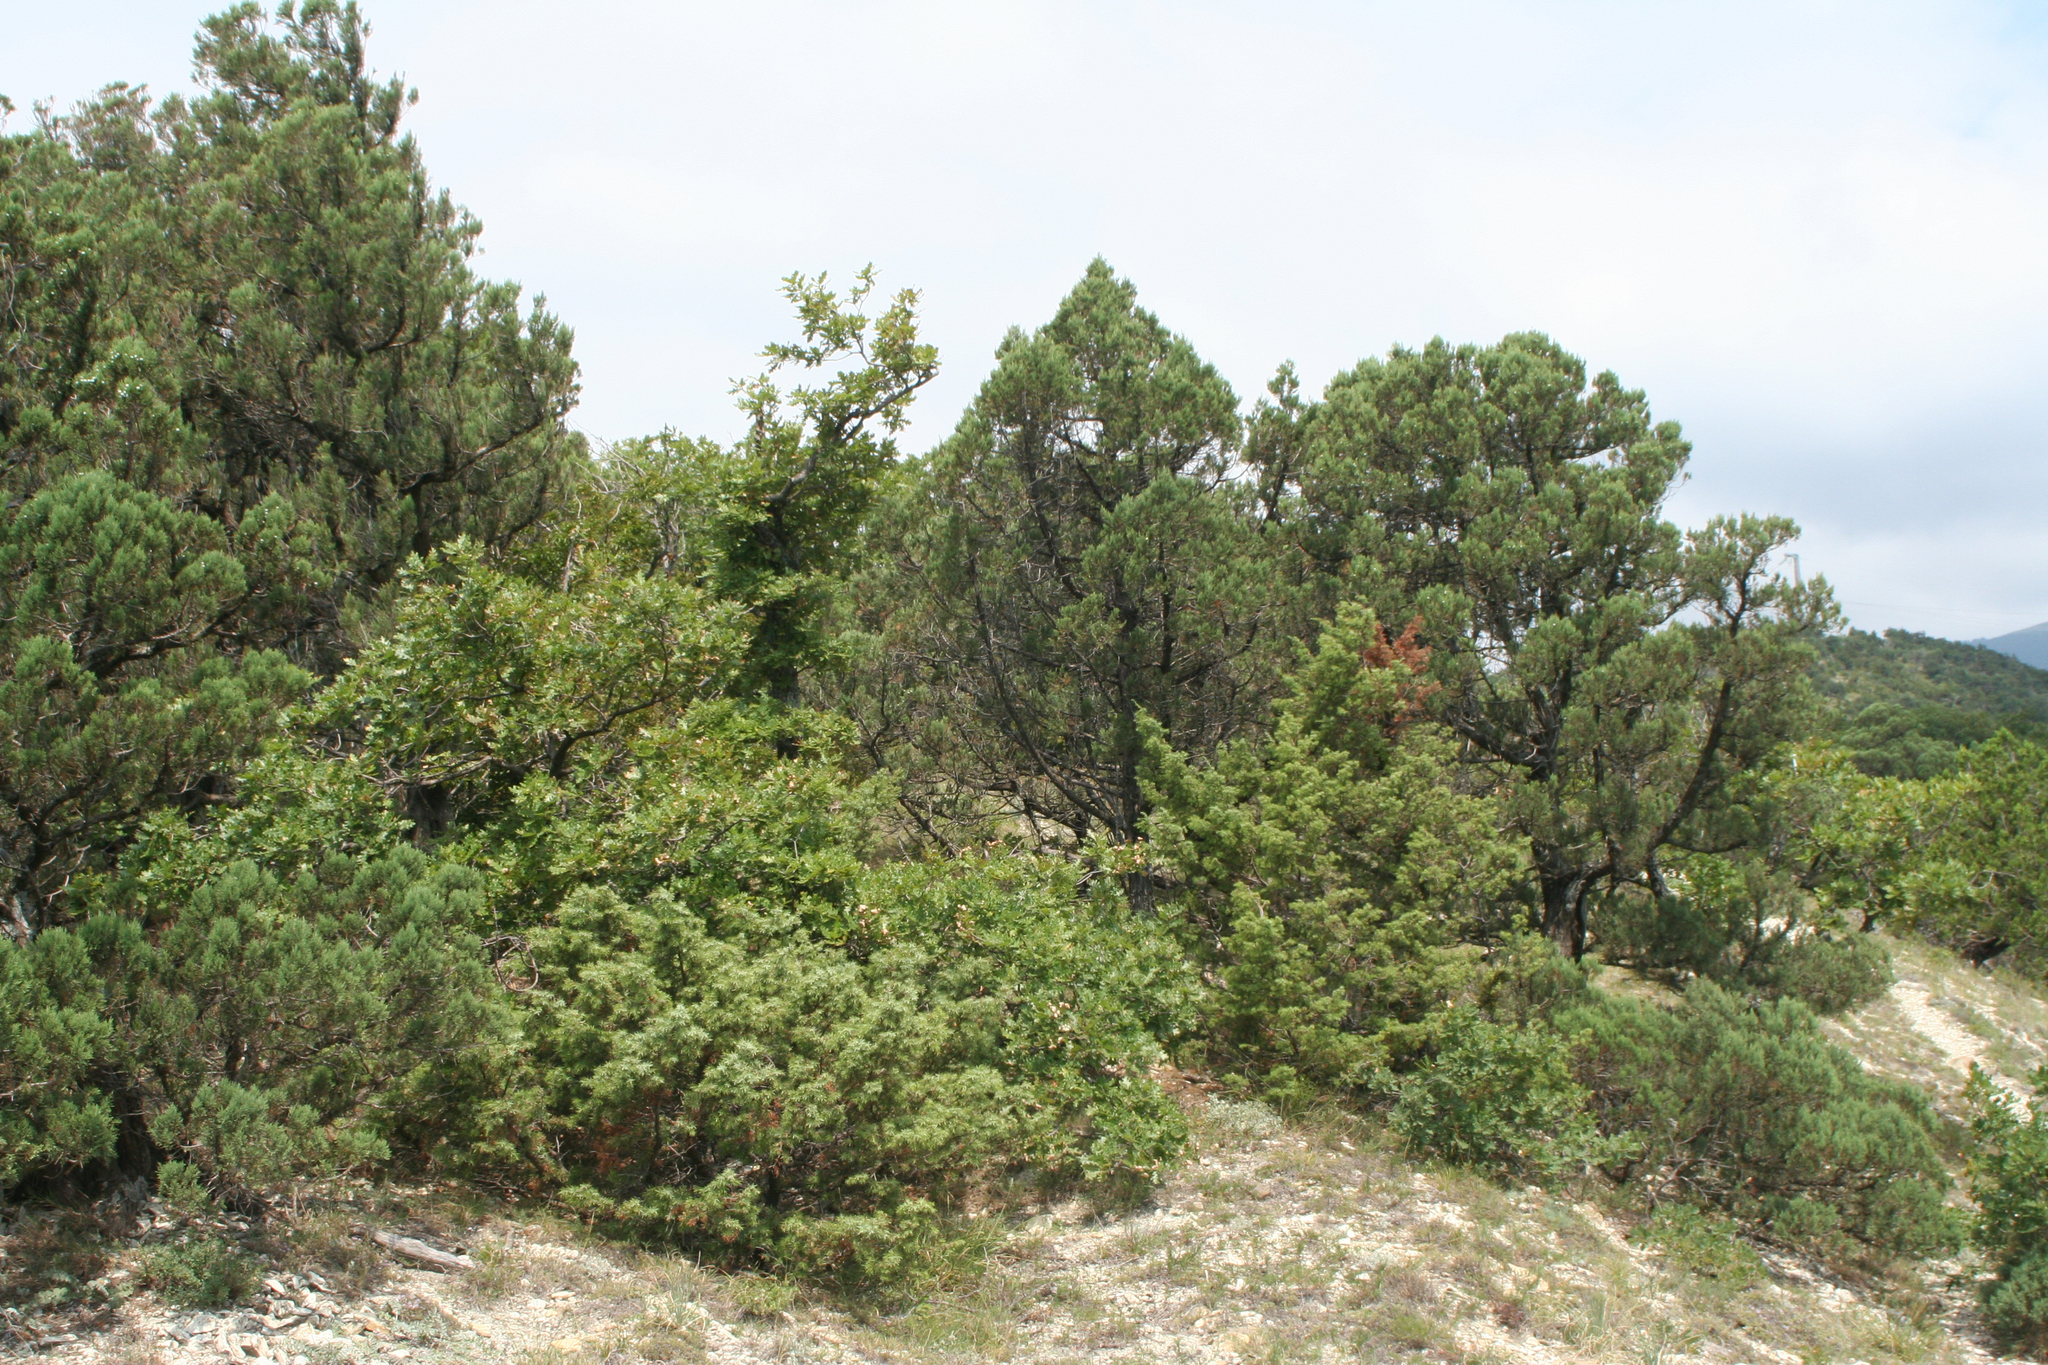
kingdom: Plantae
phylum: Tracheophyta
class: Pinopsida
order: Pinales
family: Cupressaceae
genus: Juniperus
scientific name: Juniperus excelsa
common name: Crimean juniper
